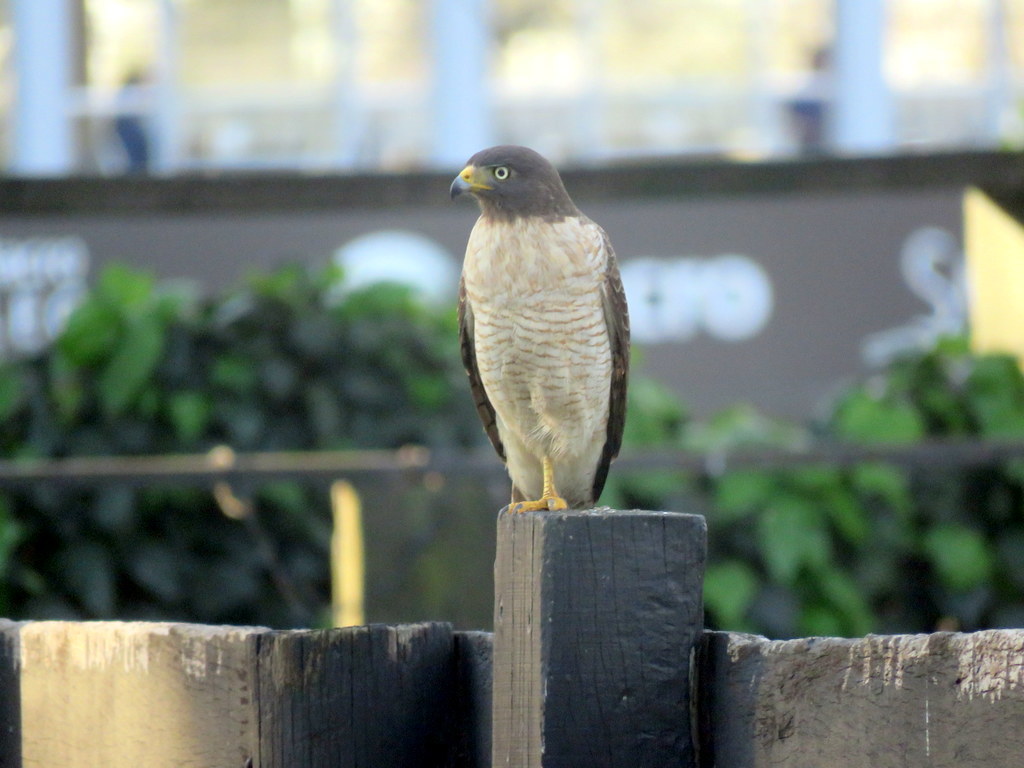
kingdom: Animalia
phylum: Chordata
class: Aves
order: Accipitriformes
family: Accipitridae
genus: Rupornis
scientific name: Rupornis magnirostris
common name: Roadside hawk
